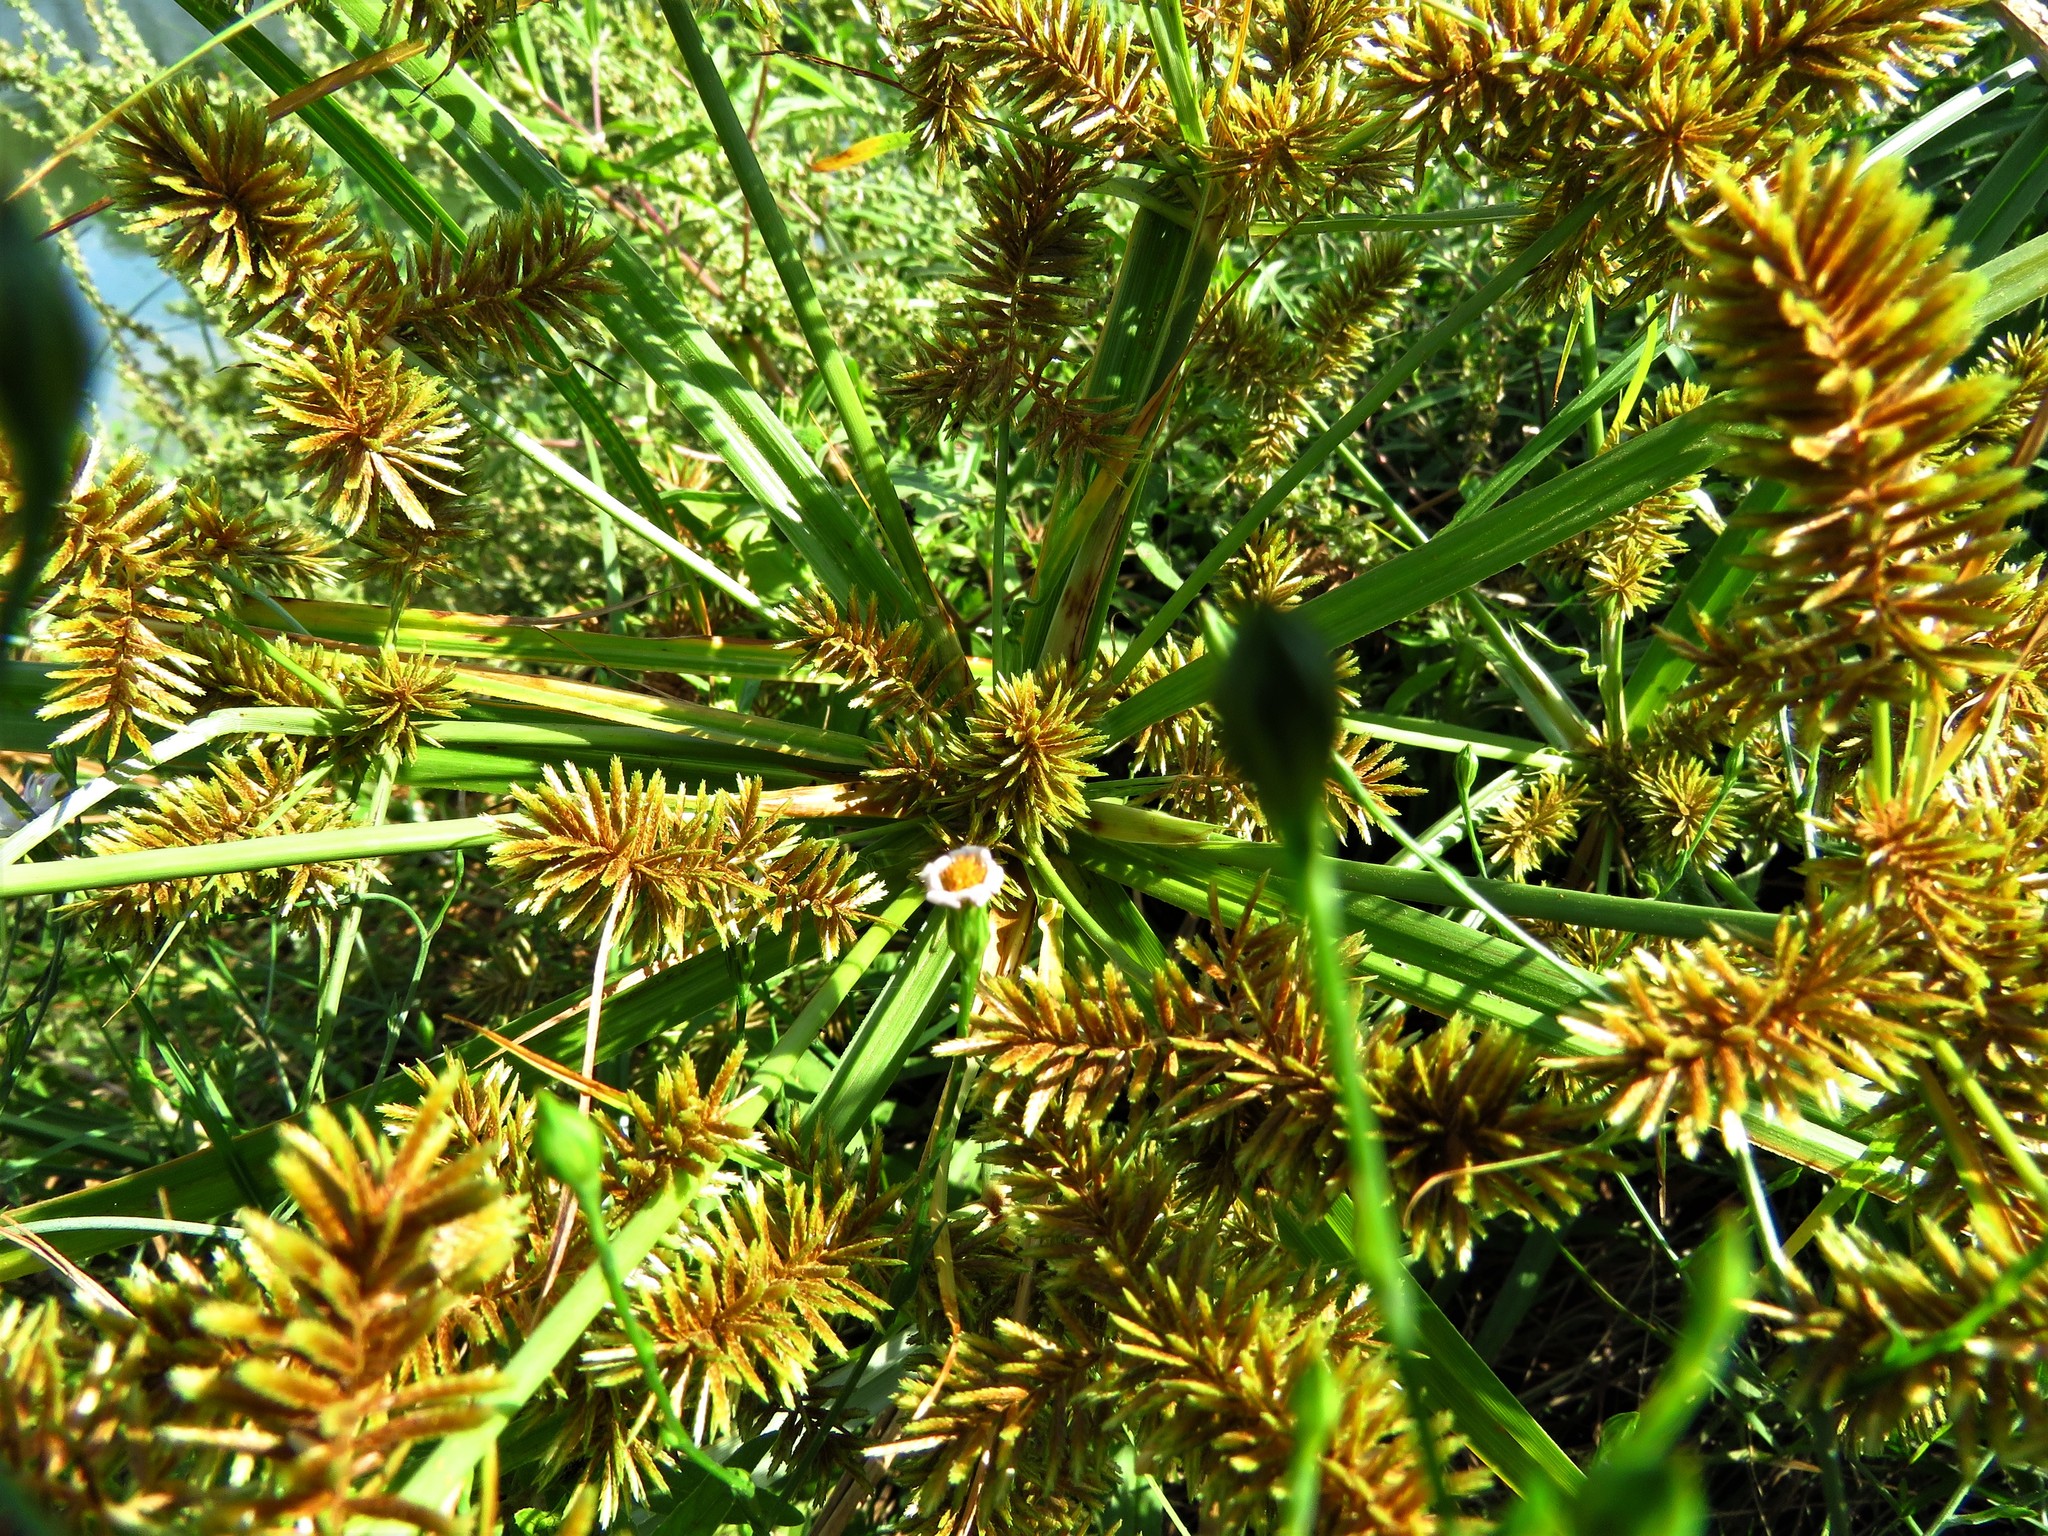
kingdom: Plantae
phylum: Tracheophyta
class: Liliopsida
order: Poales
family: Cyperaceae
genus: Cyperus
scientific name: Cyperus erythrorhizos
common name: Red-root flat sedge
